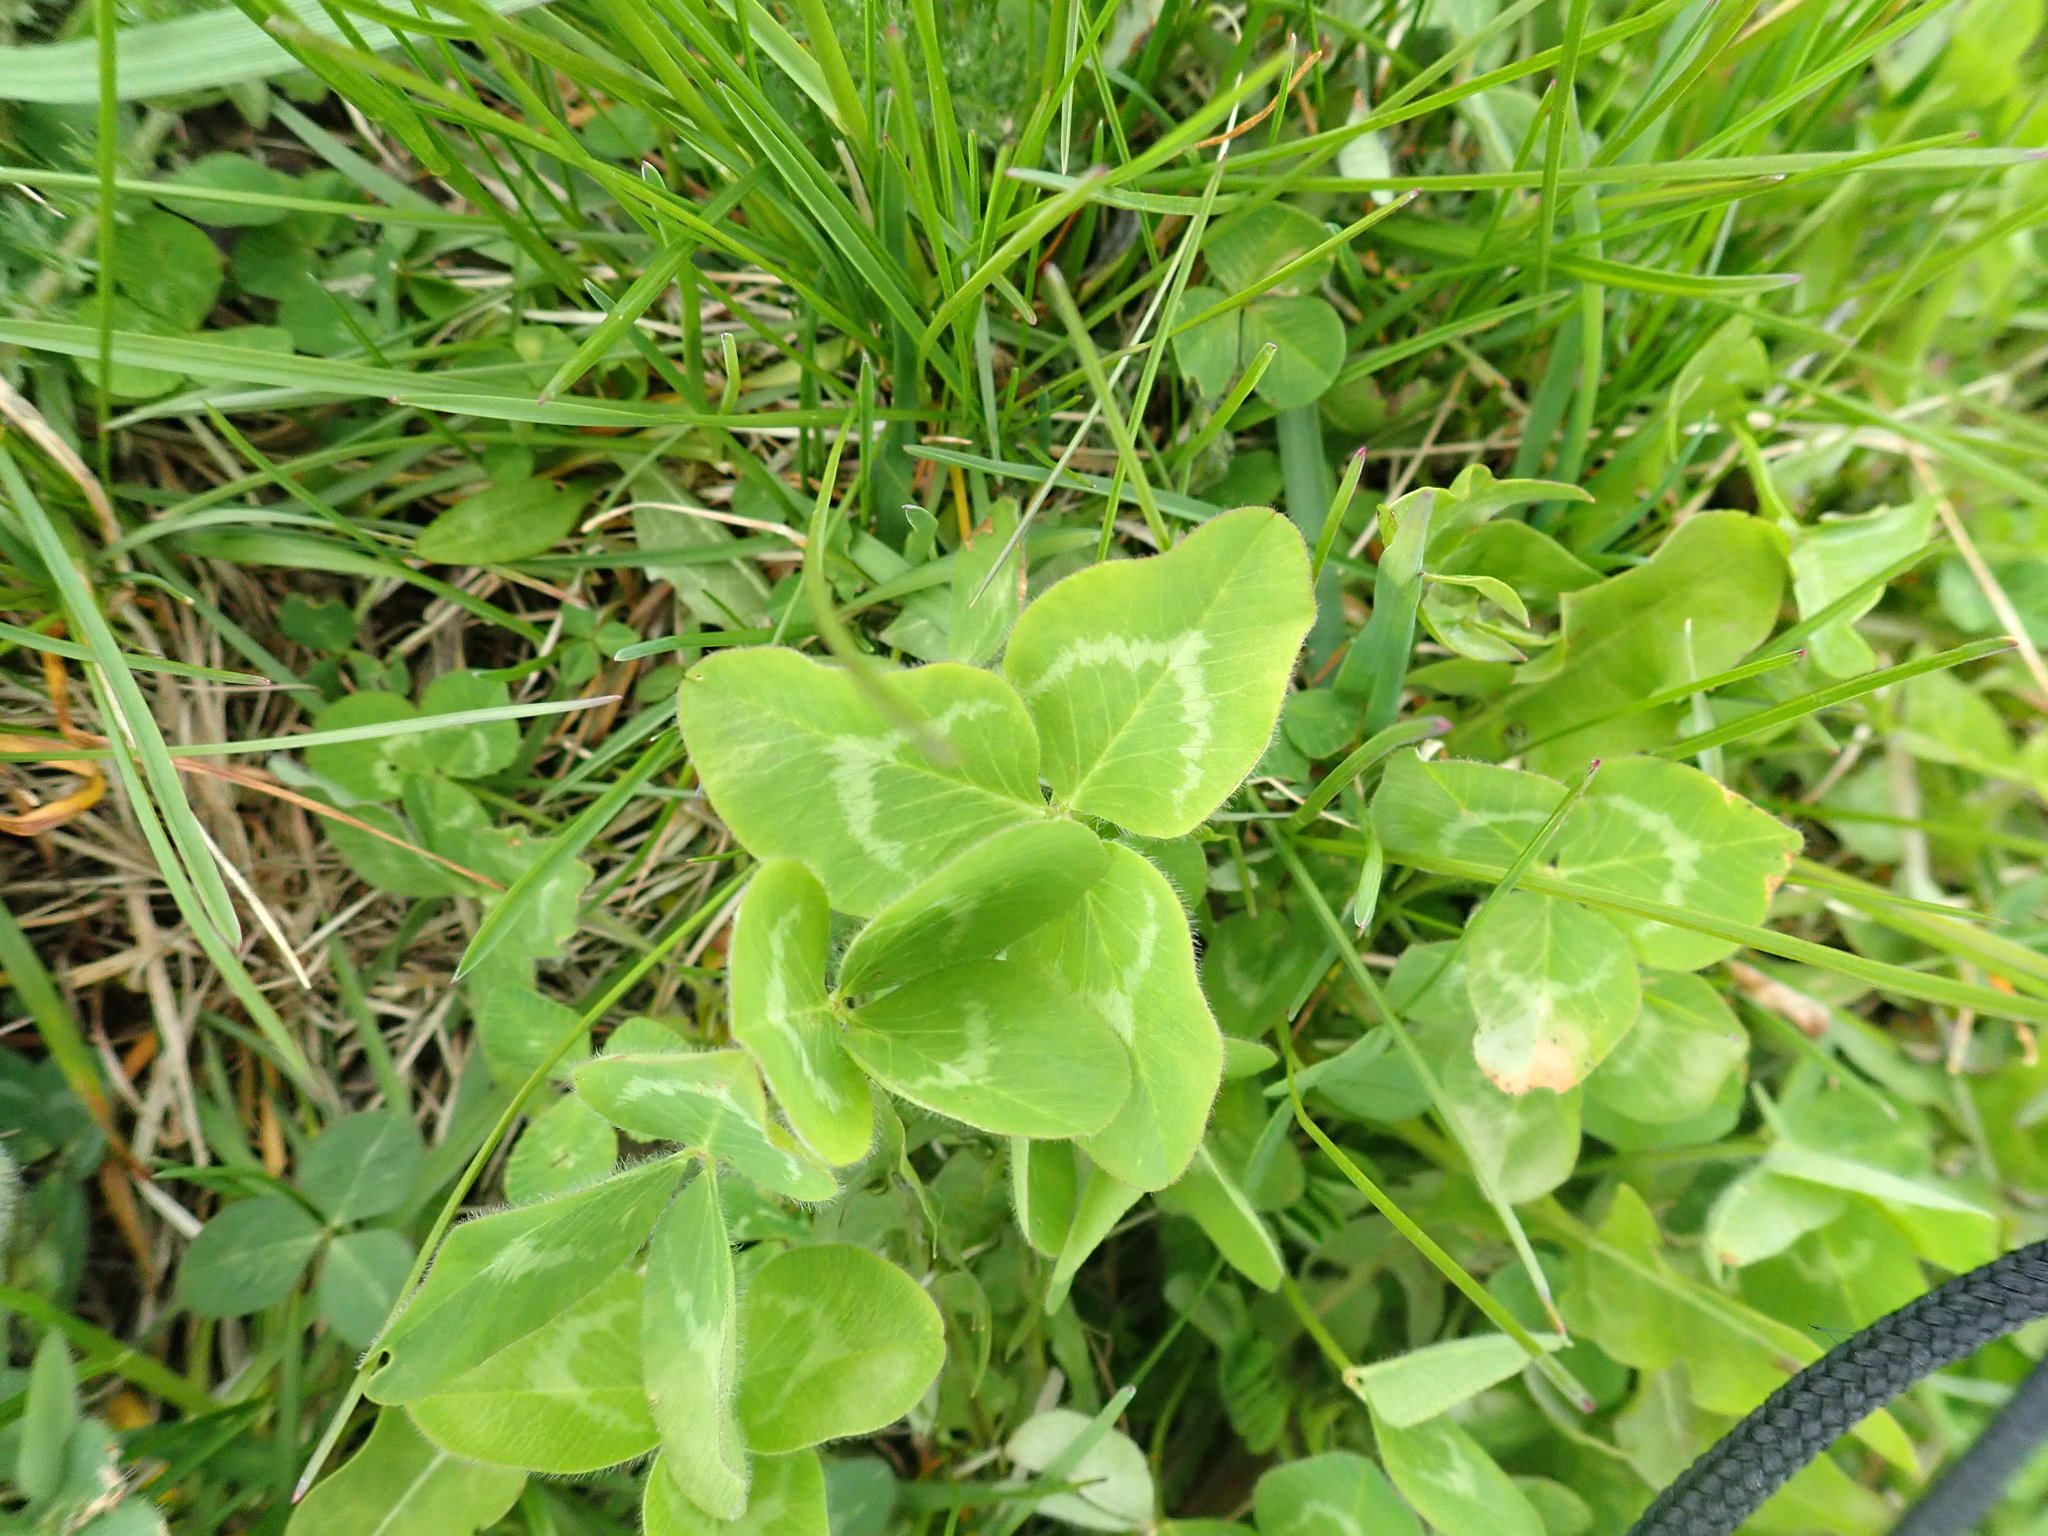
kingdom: Plantae
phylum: Tracheophyta
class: Magnoliopsida
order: Fabales
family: Fabaceae
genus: Trifolium
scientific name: Trifolium pratense
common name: Red clover
